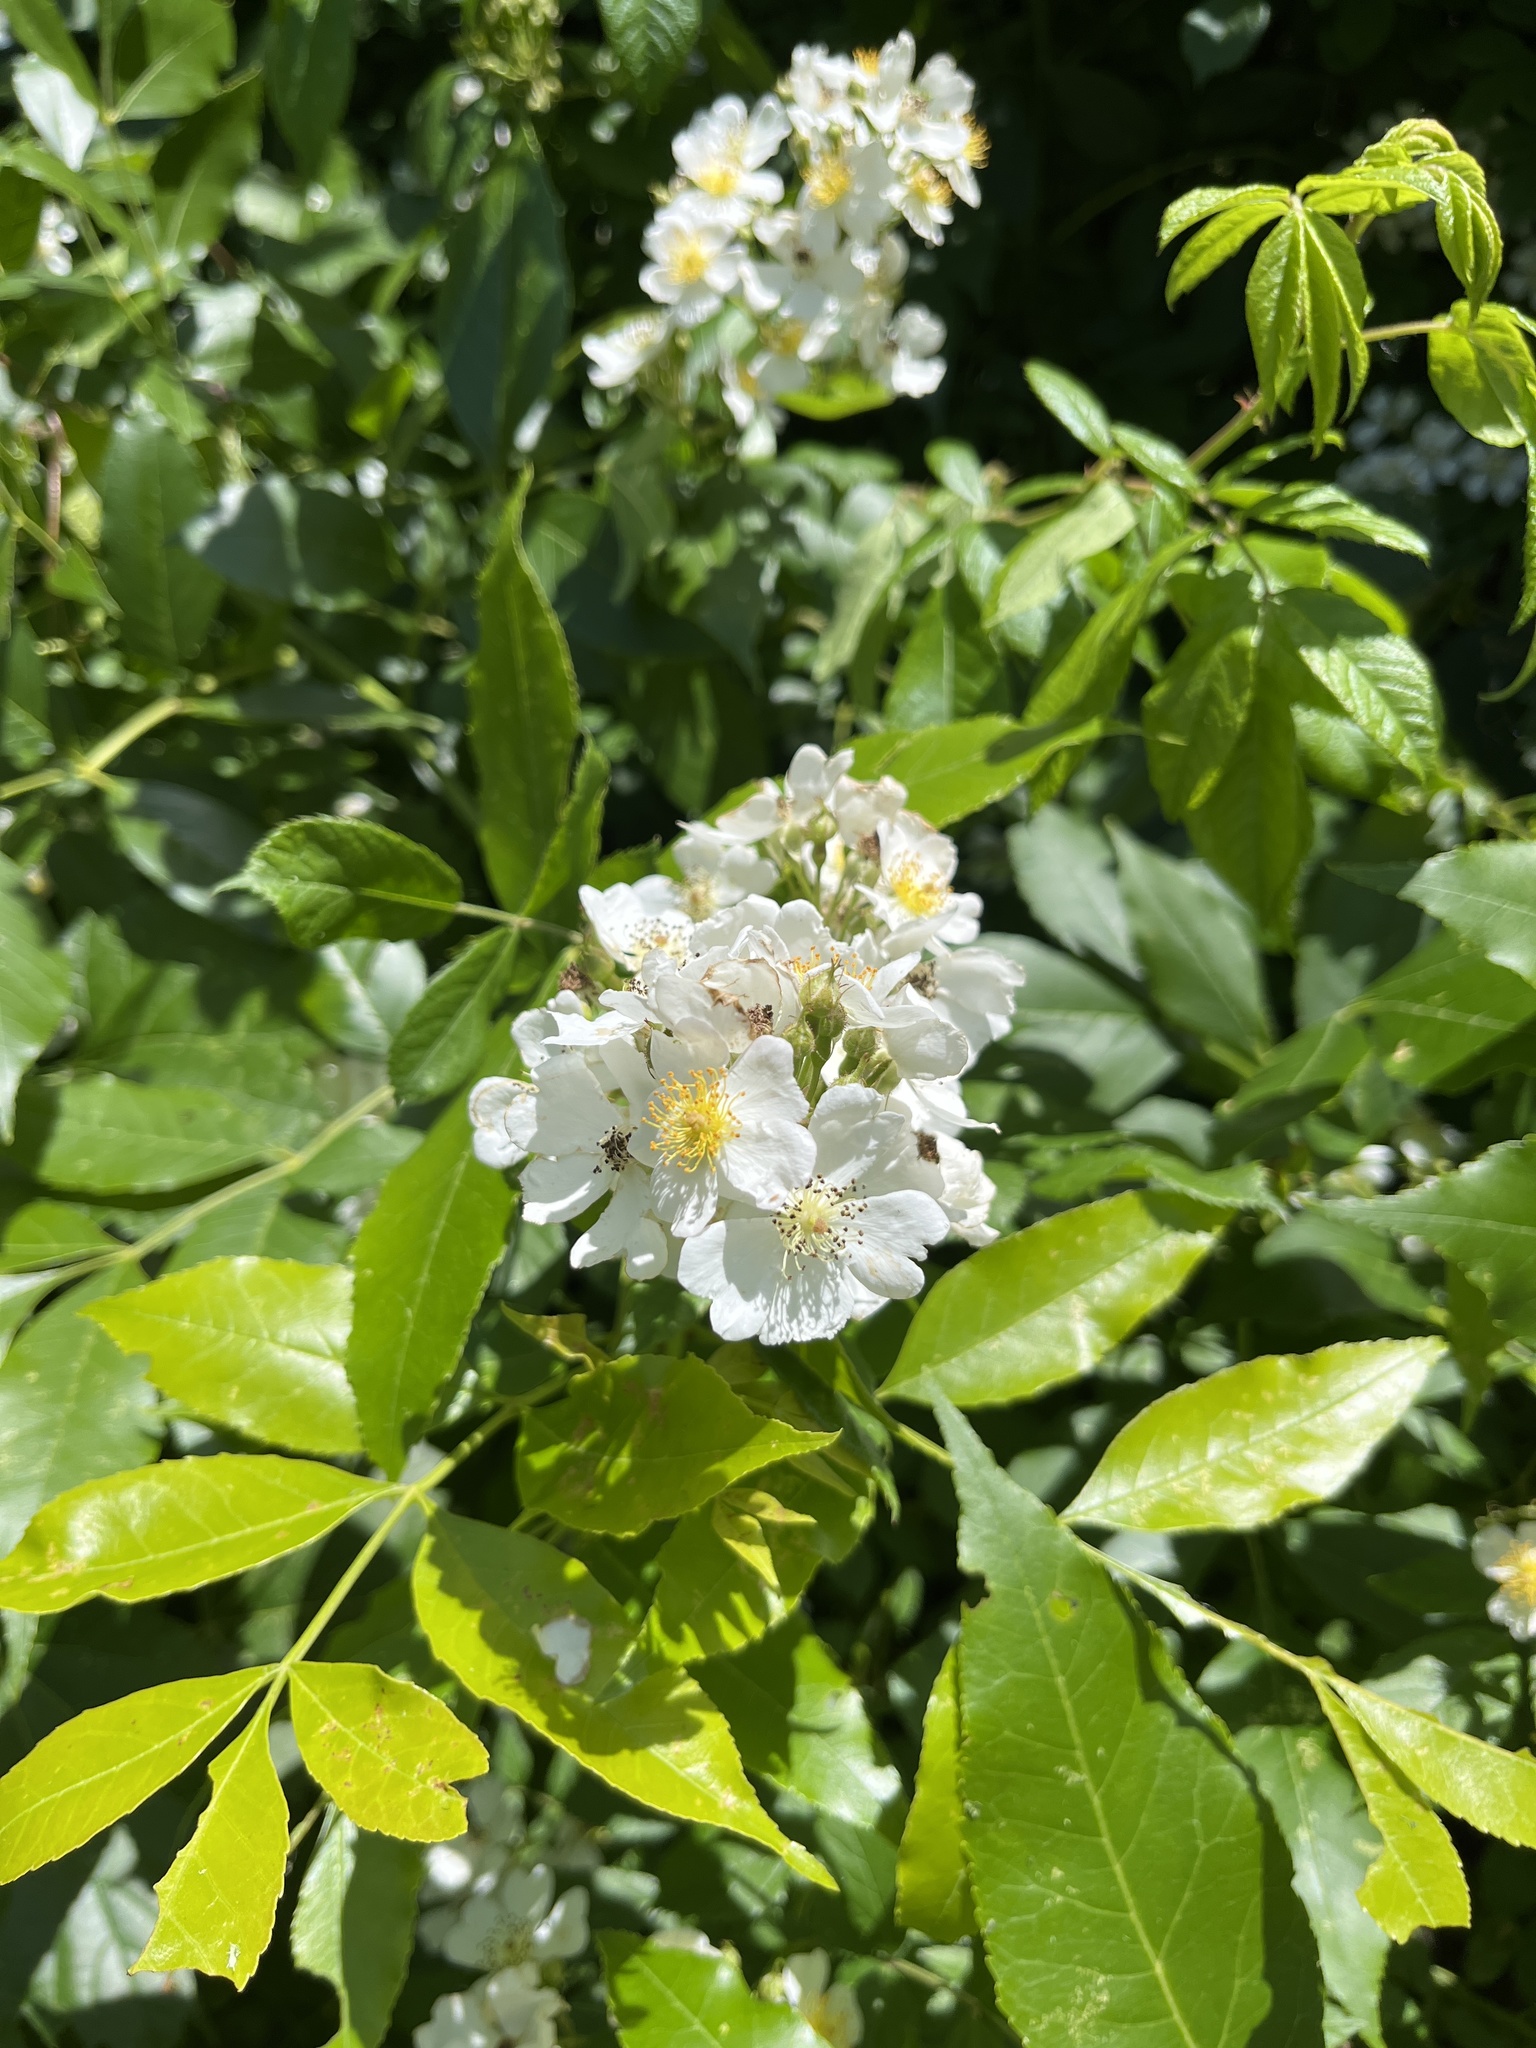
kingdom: Plantae
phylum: Tracheophyta
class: Magnoliopsida
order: Rosales
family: Rosaceae
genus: Rosa
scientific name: Rosa multiflora
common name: Multiflora rose
